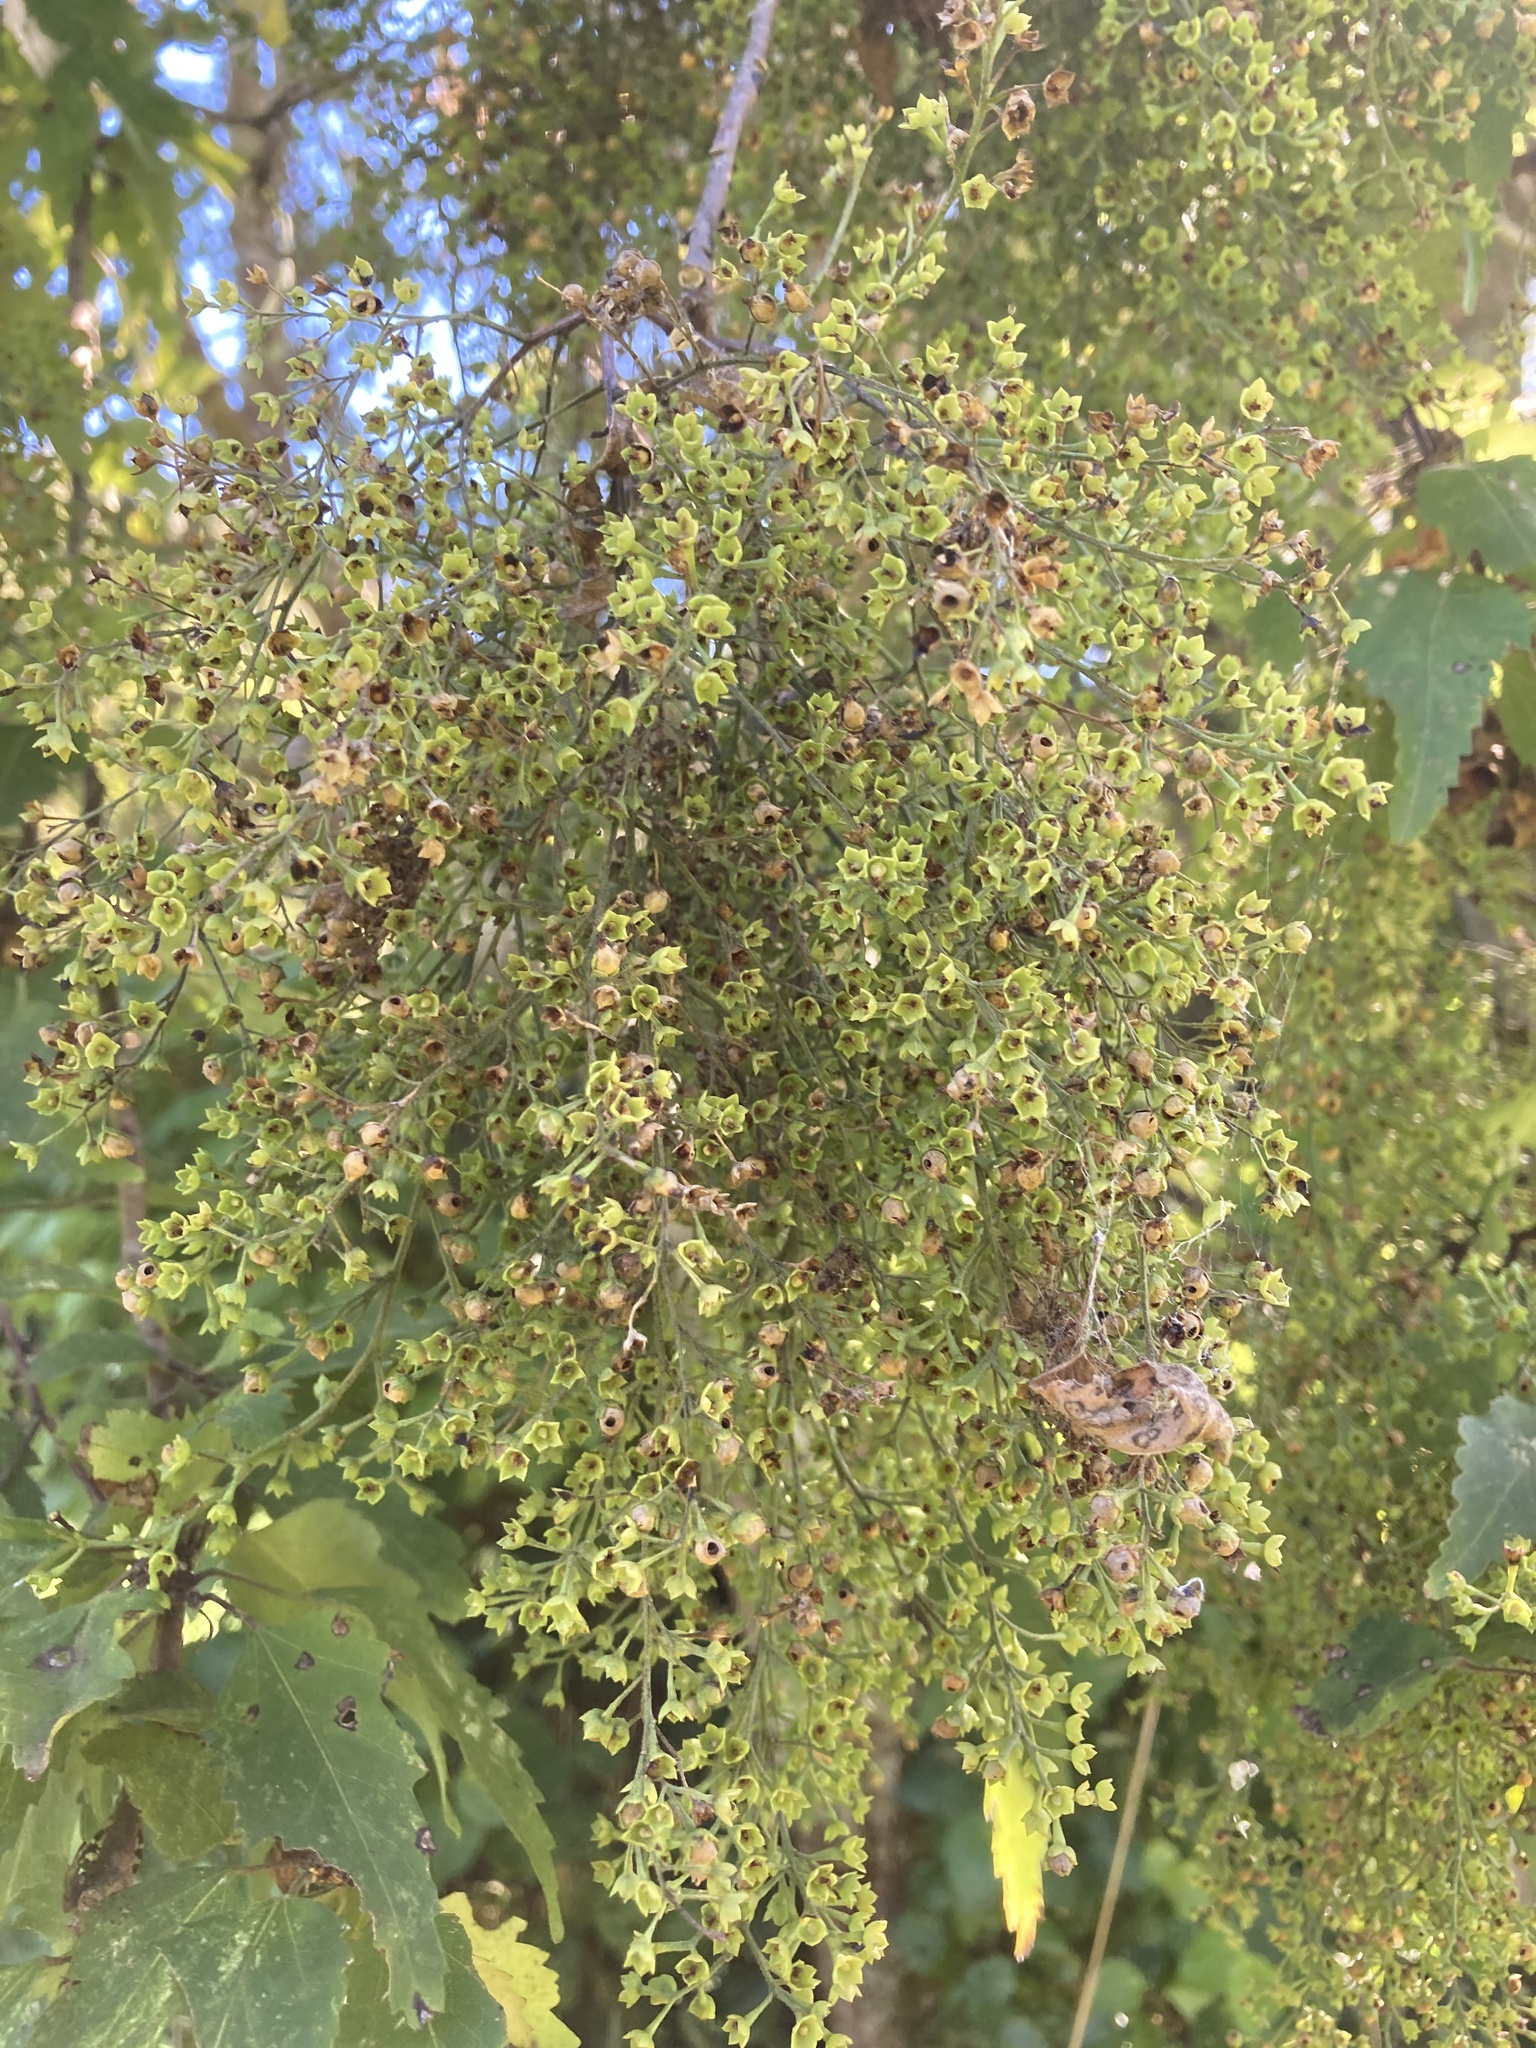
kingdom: Plantae
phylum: Tracheophyta
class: Magnoliopsida
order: Malvales
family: Malvaceae
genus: Plagianthus
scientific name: Plagianthus regius
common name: Manatu
